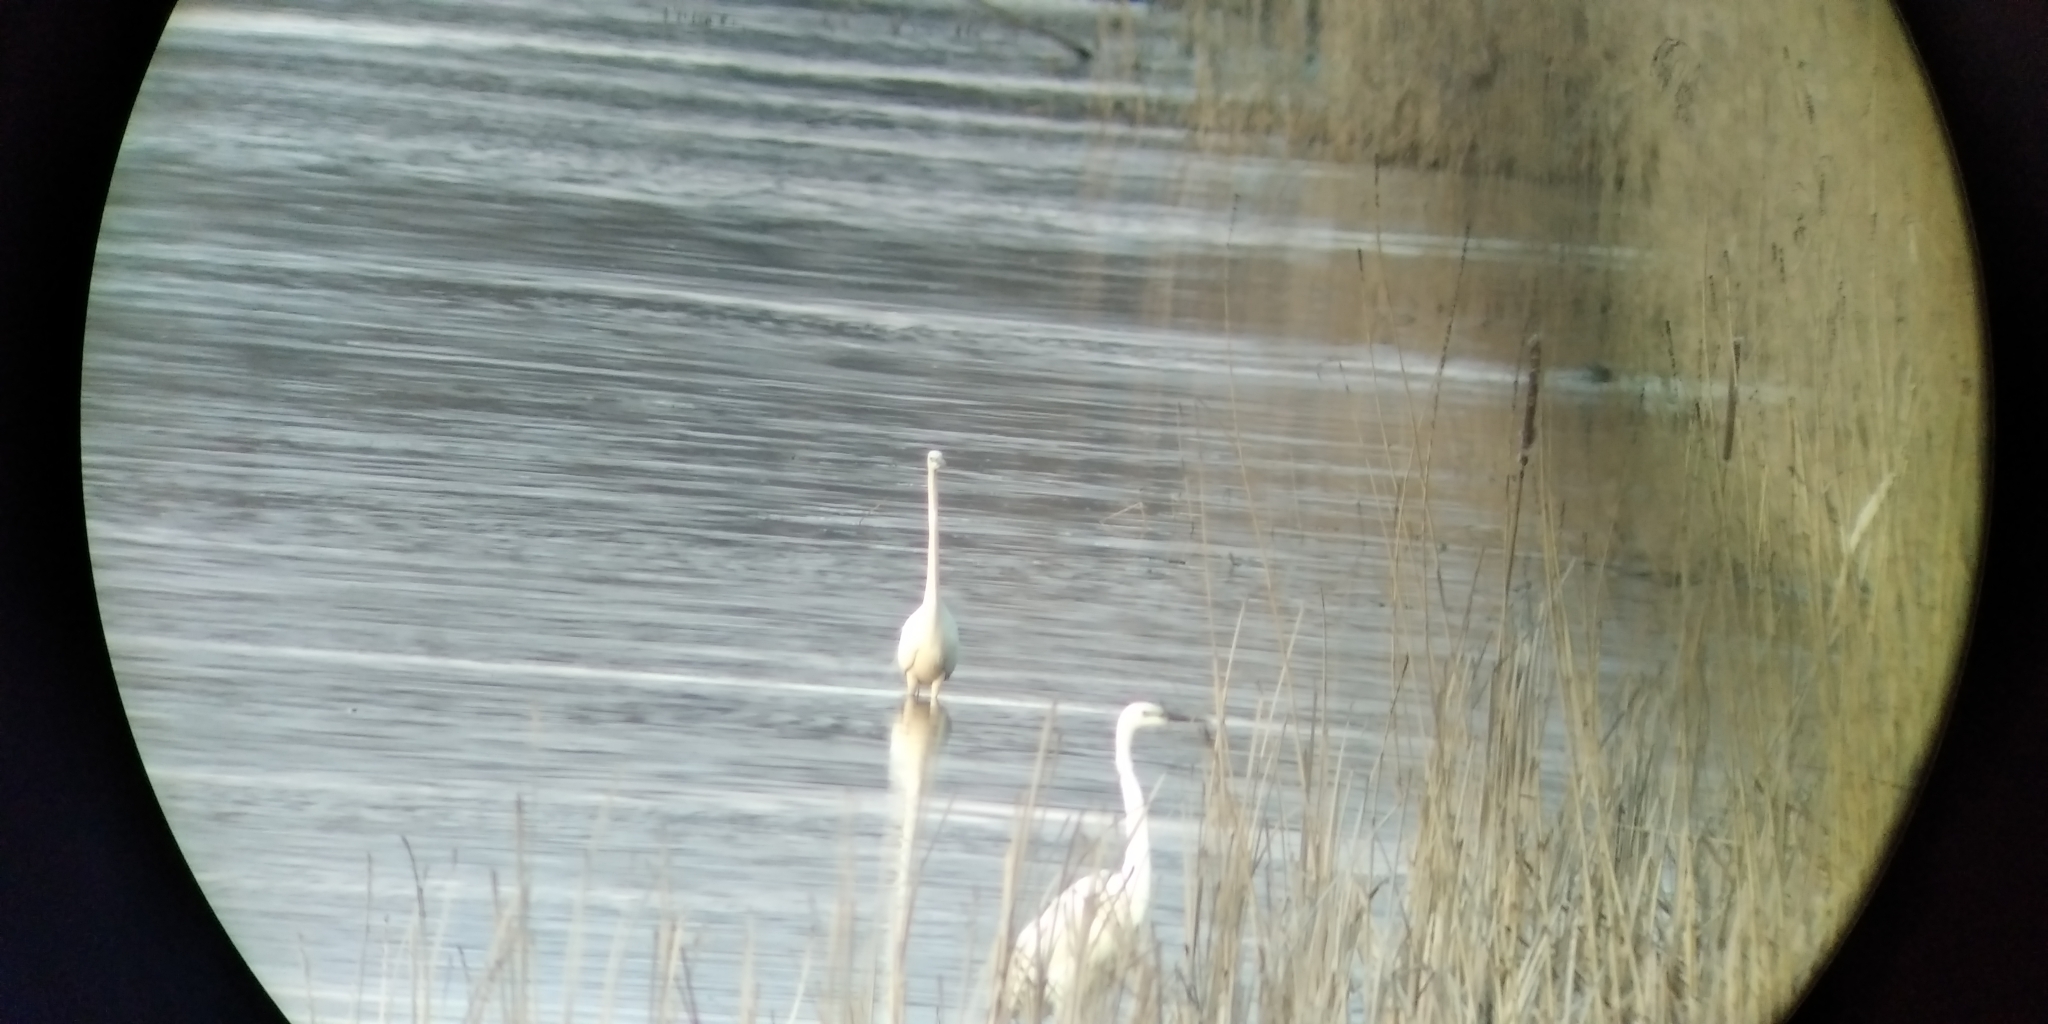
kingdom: Animalia
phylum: Chordata
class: Aves
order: Pelecaniformes
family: Ardeidae
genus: Ardea
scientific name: Ardea alba
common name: Great egret
